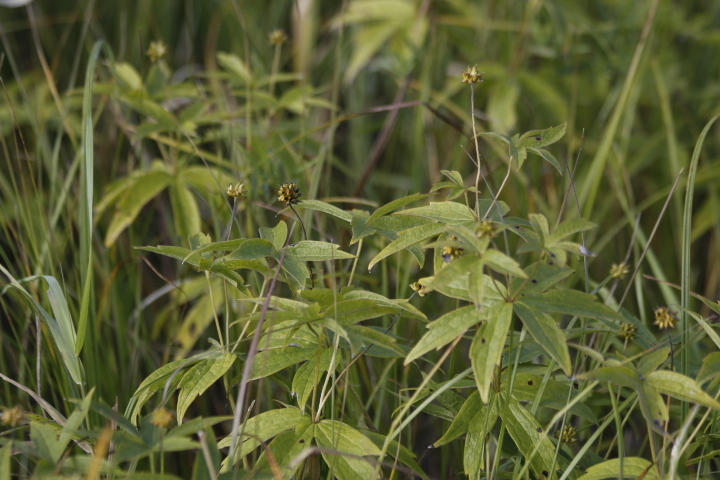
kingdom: Plantae
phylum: Tracheophyta
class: Magnoliopsida
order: Ranunculales
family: Ranunculaceae
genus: Anemonastrum
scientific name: Anemonastrum dichotomum
